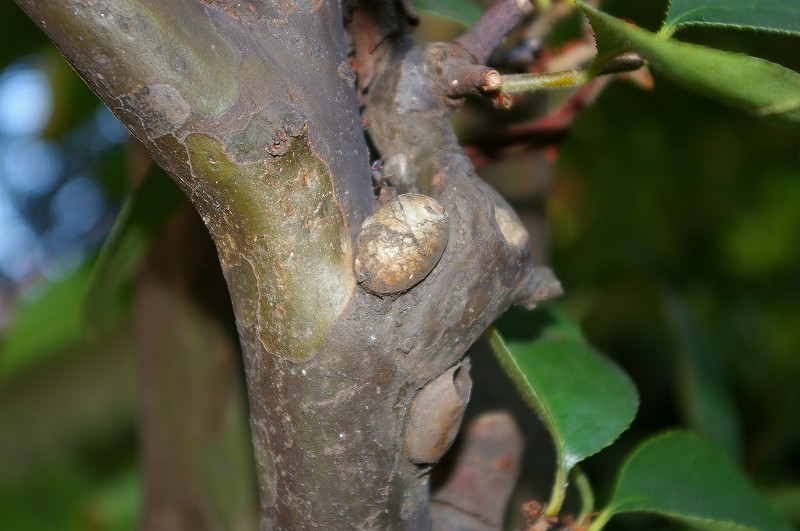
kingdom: Animalia
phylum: Arthropoda
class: Insecta
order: Lepidoptera
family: Limacodidae
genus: Parasa
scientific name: Parasa lepida
